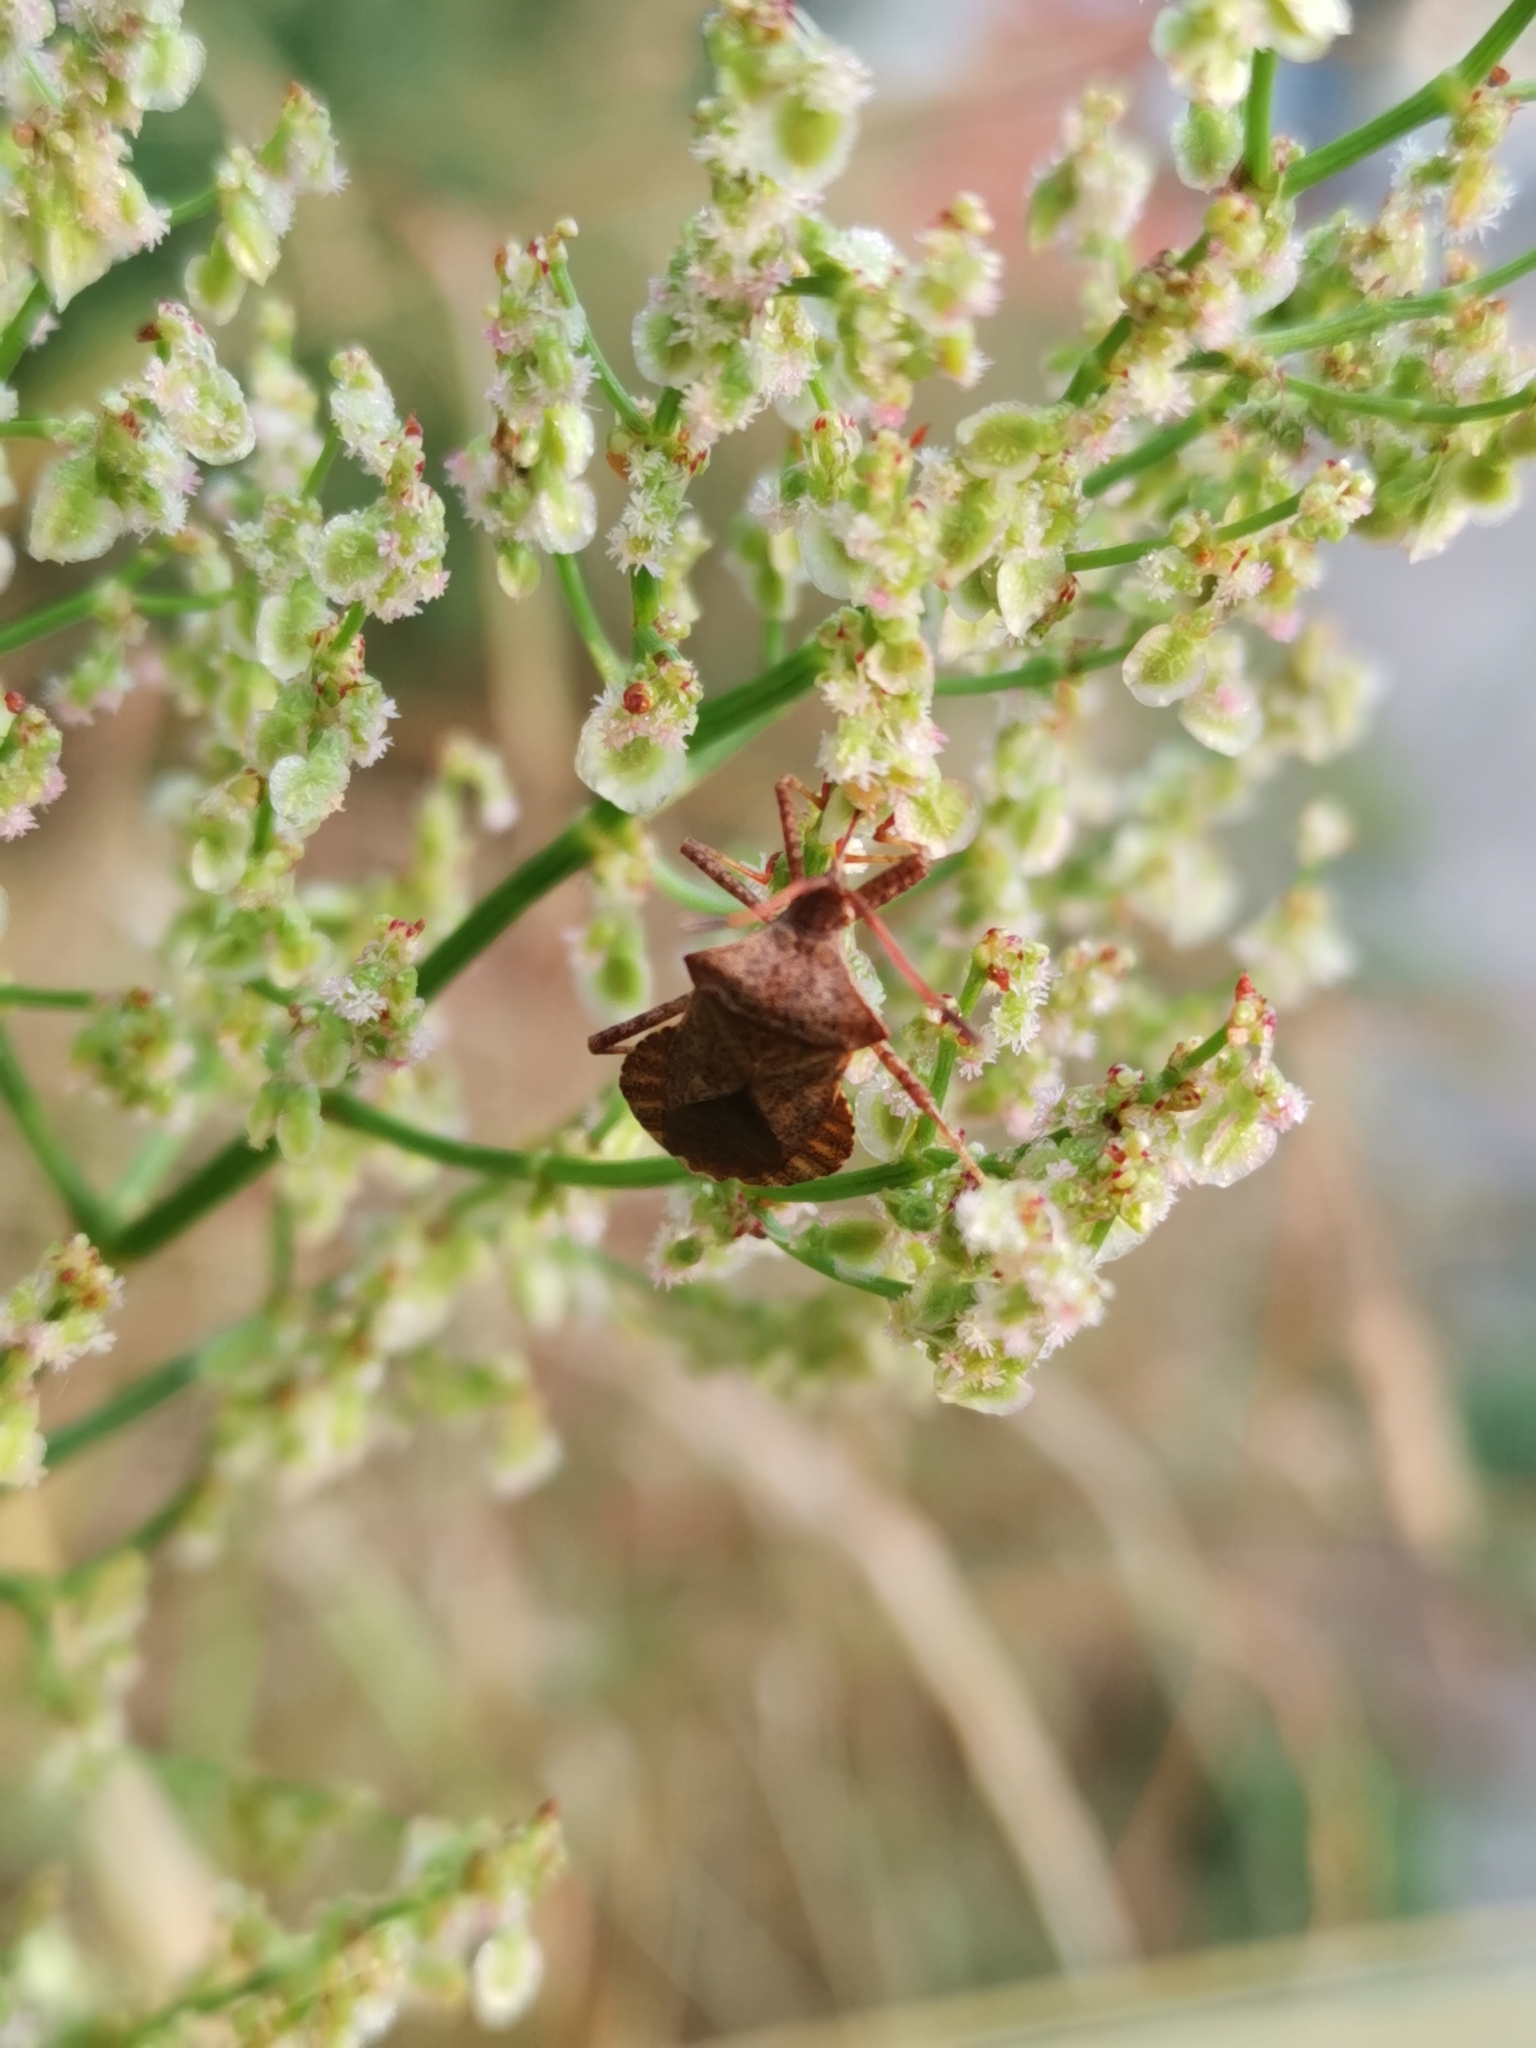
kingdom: Animalia
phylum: Arthropoda
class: Insecta
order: Hemiptera
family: Coreidae
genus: Coreus
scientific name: Coreus marginatus
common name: Dock bug
